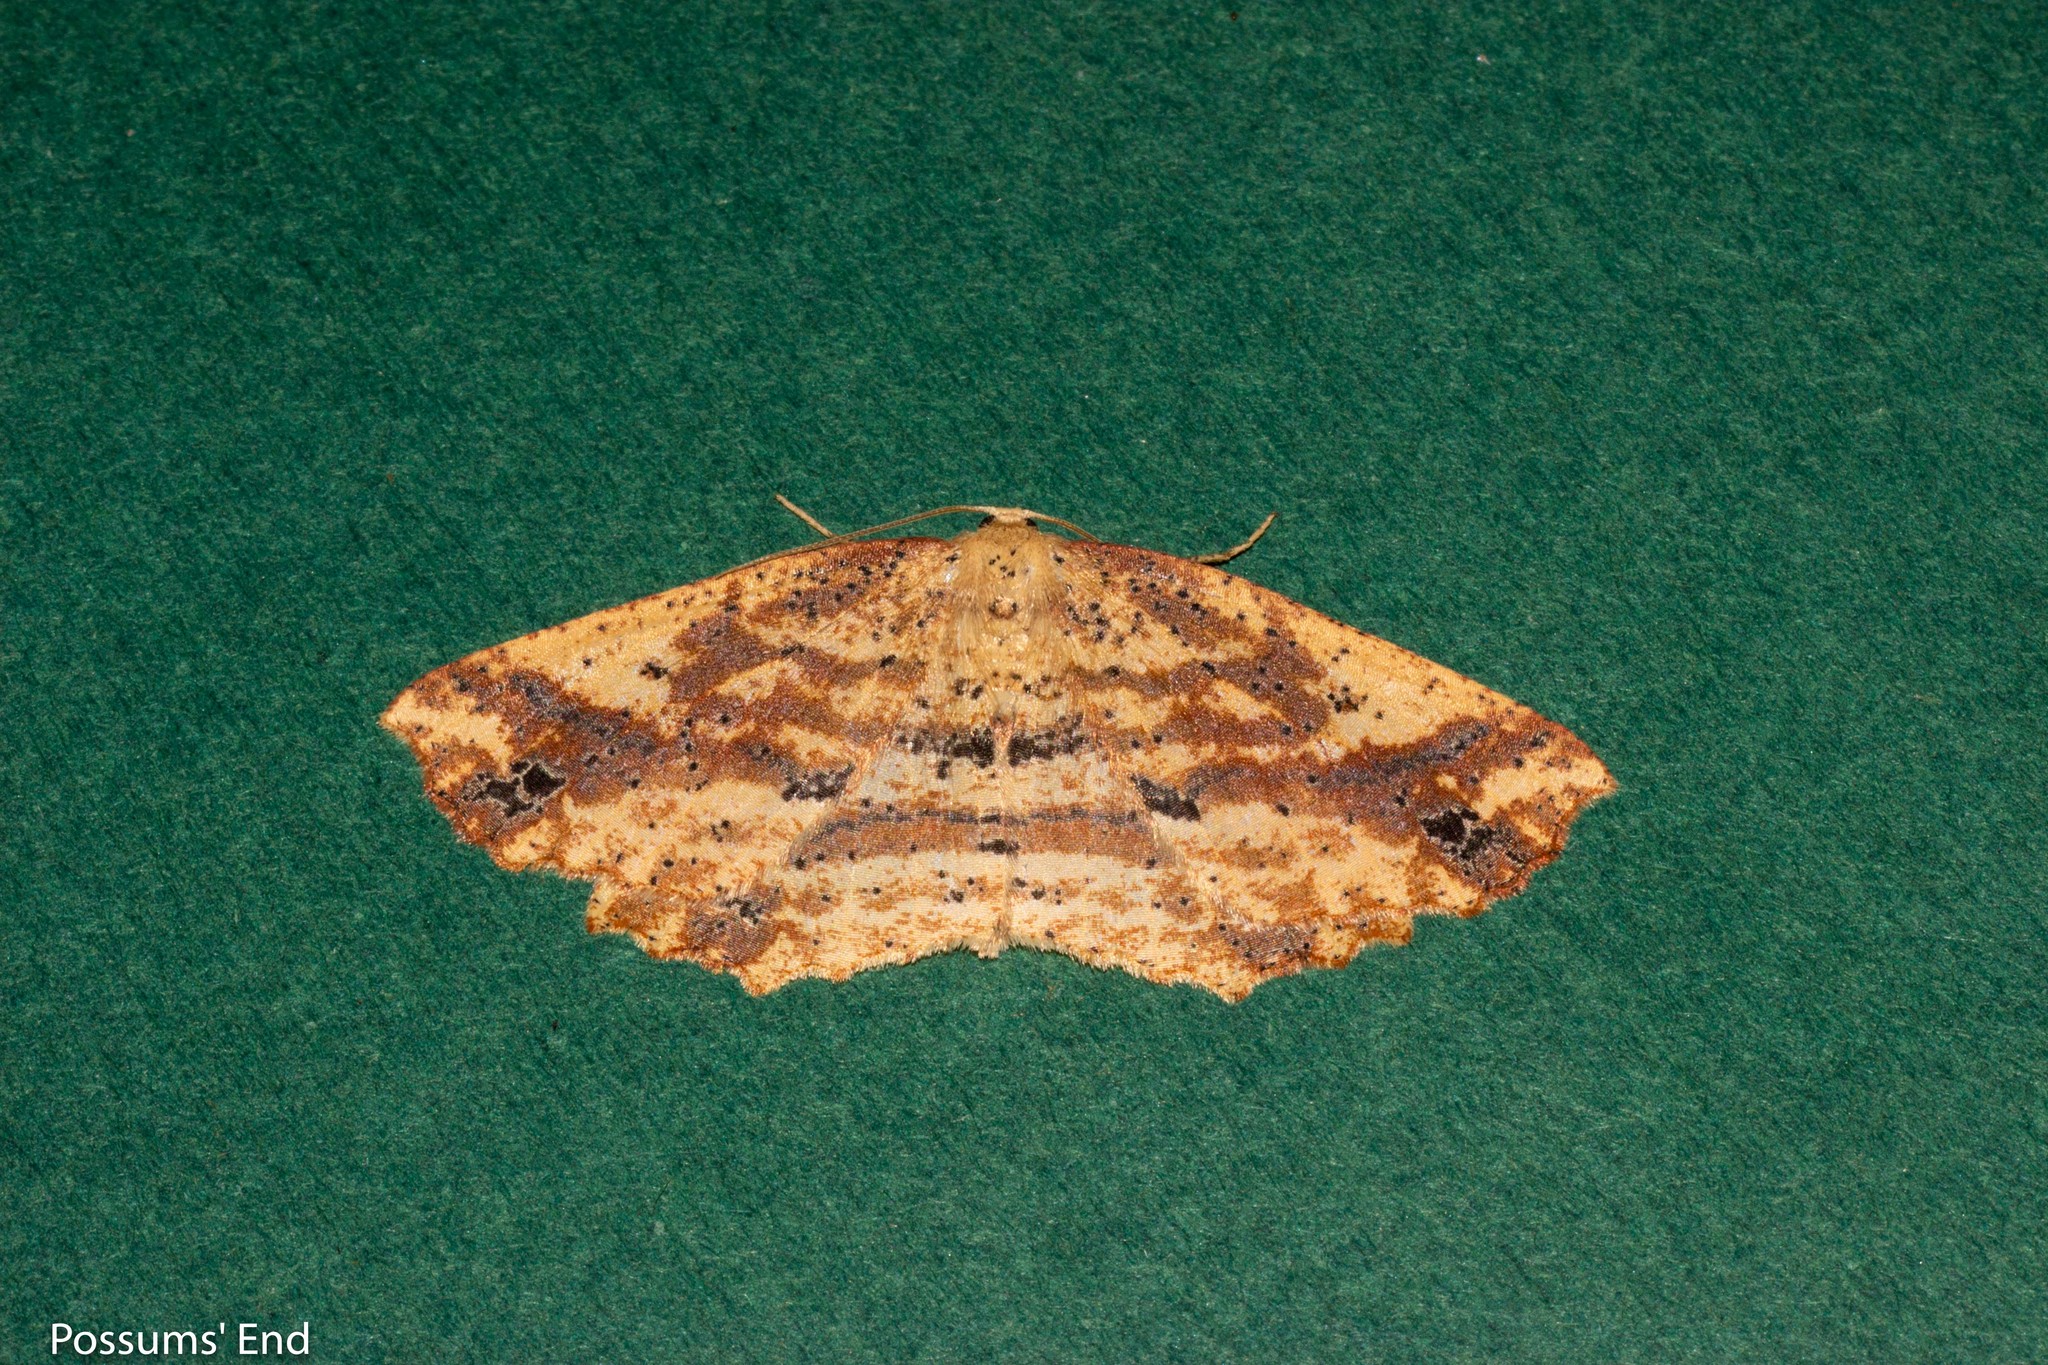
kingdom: Animalia
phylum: Arthropoda
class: Insecta
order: Lepidoptera
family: Geometridae
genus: Xyridacma
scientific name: Xyridacma veronicae
